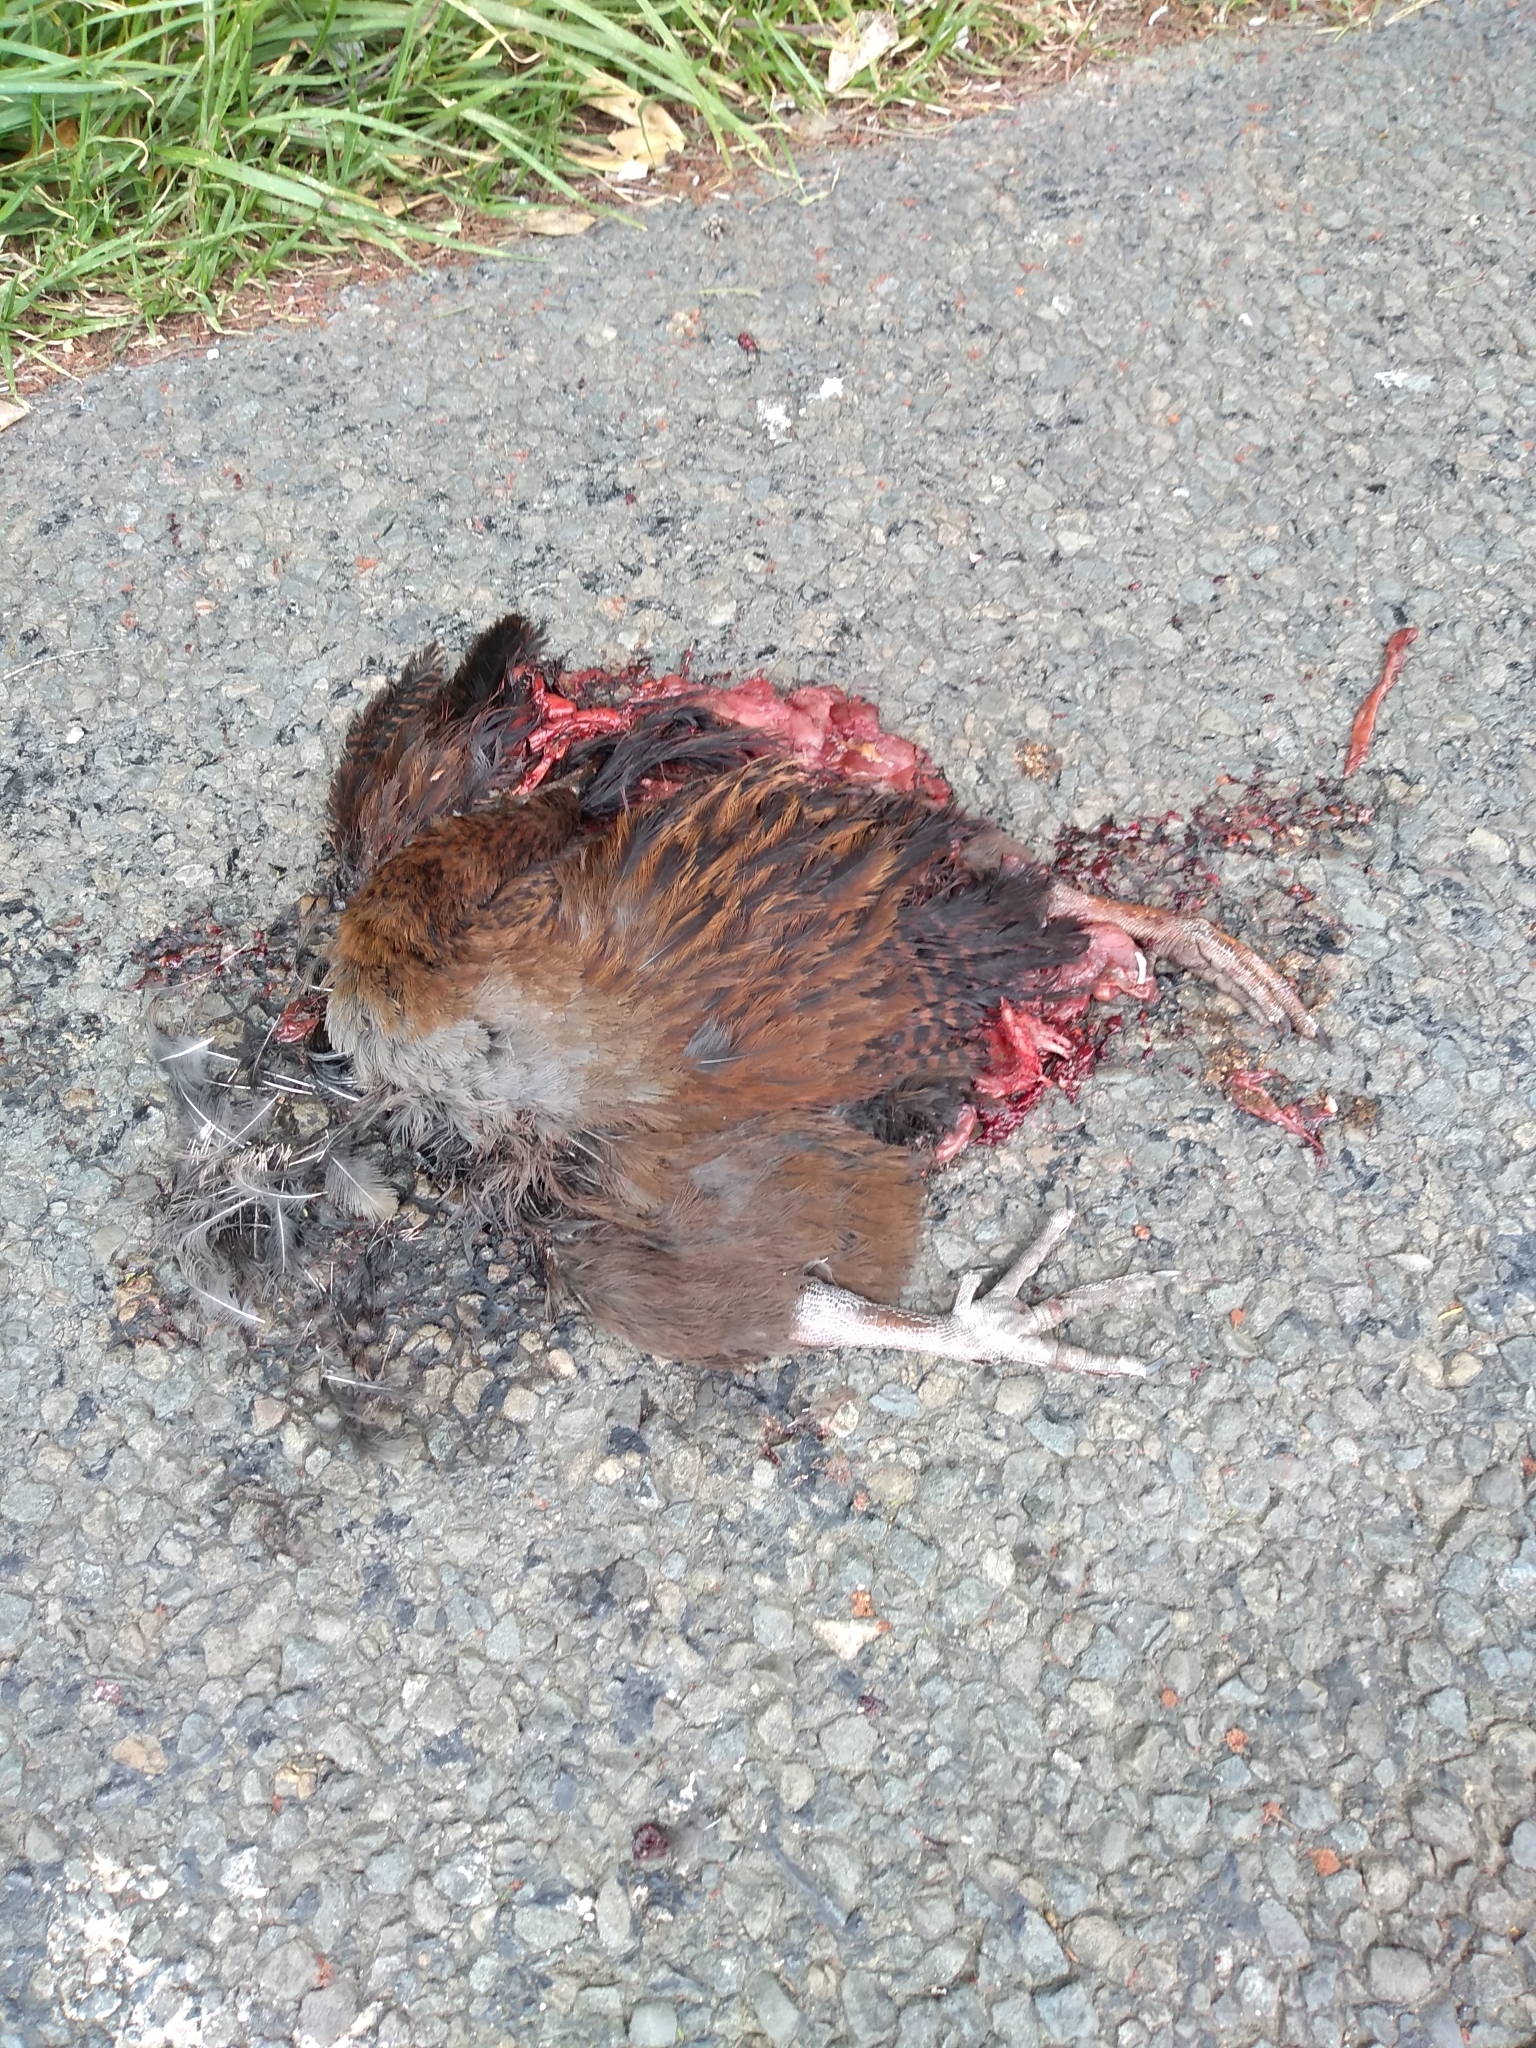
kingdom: Animalia
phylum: Chordata
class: Aves
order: Gruiformes
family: Rallidae
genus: Gallirallus
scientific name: Gallirallus australis
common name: Weka
